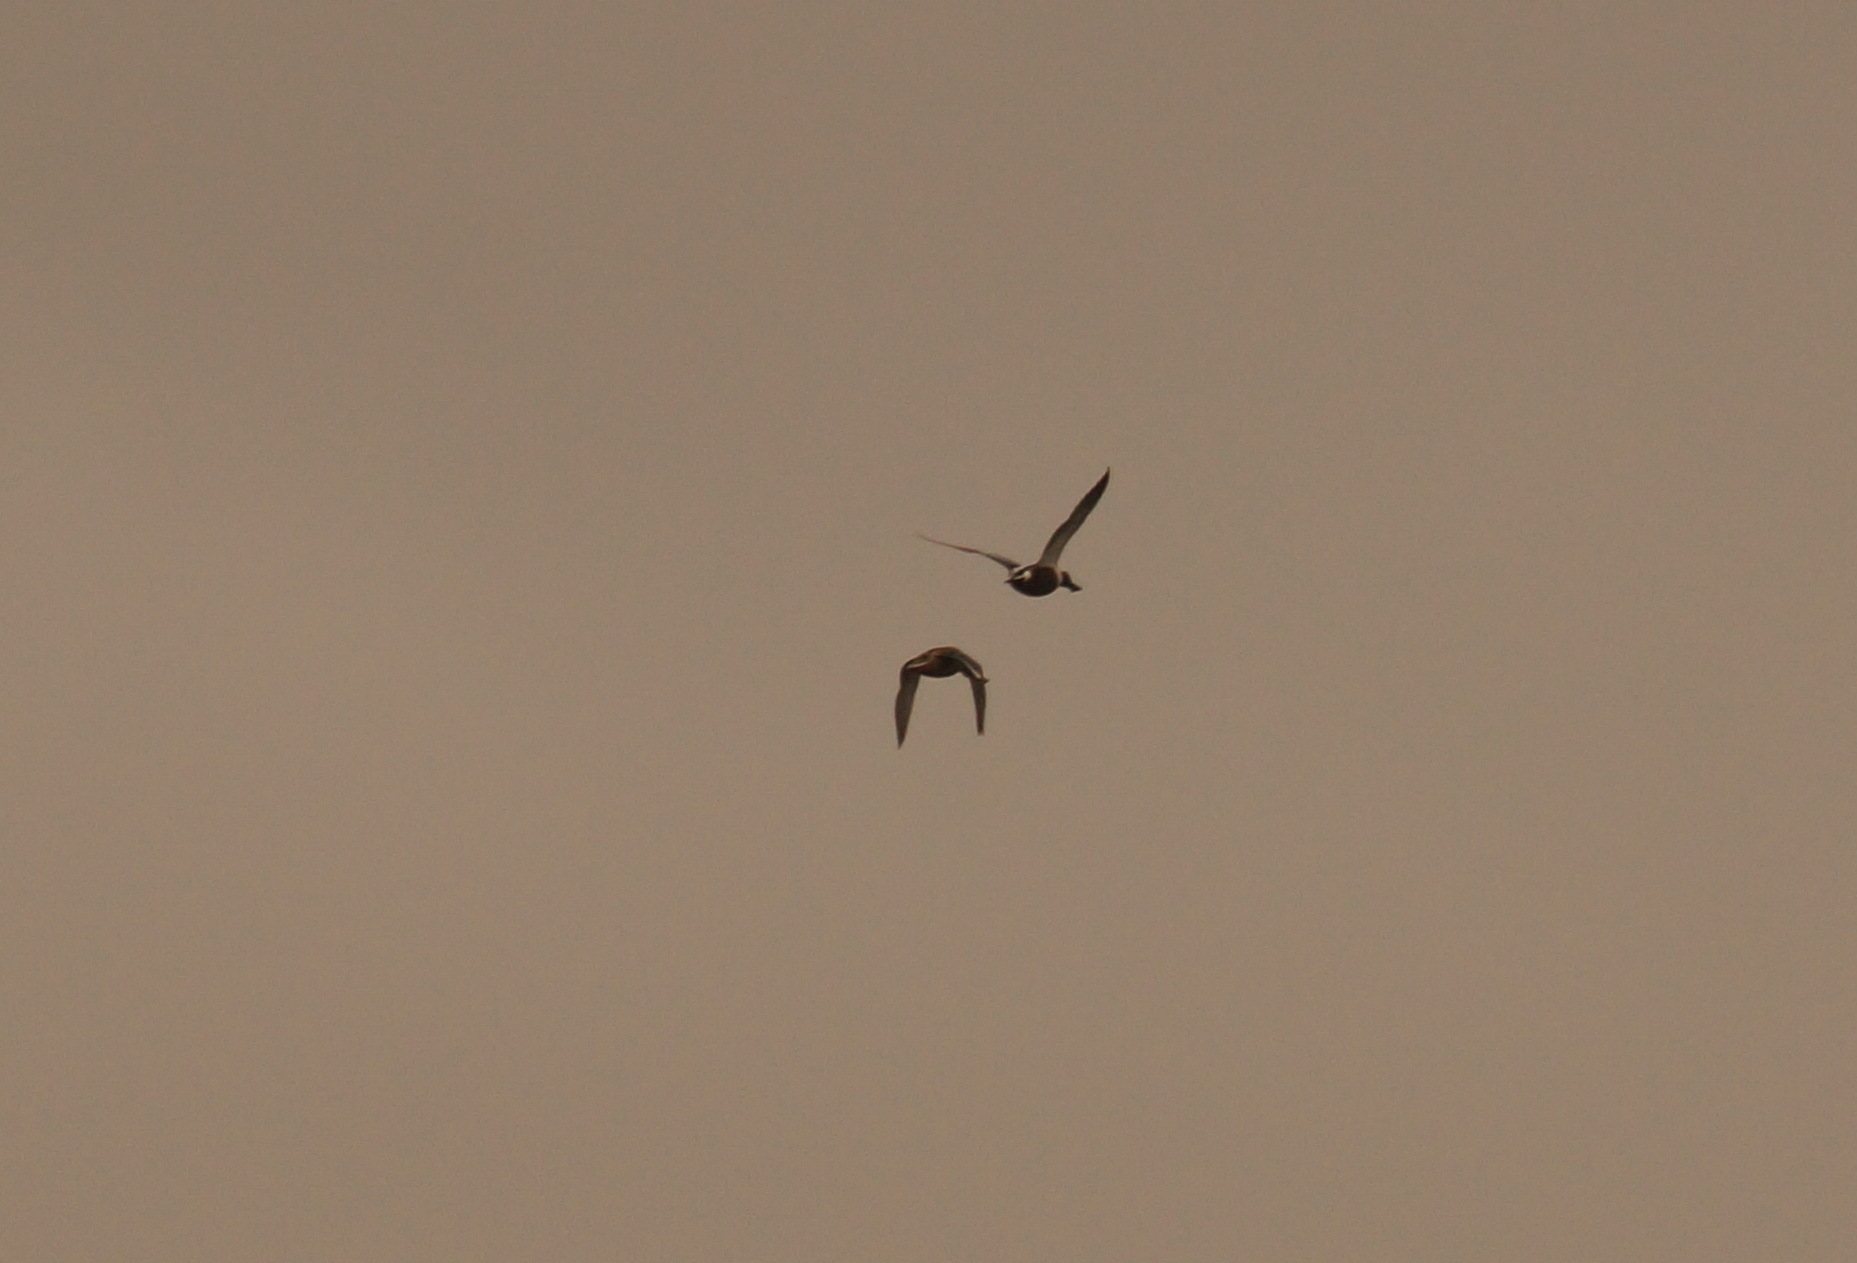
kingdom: Animalia
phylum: Chordata
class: Aves
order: Anseriformes
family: Anatidae
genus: Spatula
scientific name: Spatula clypeata
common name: Northern shoveler
